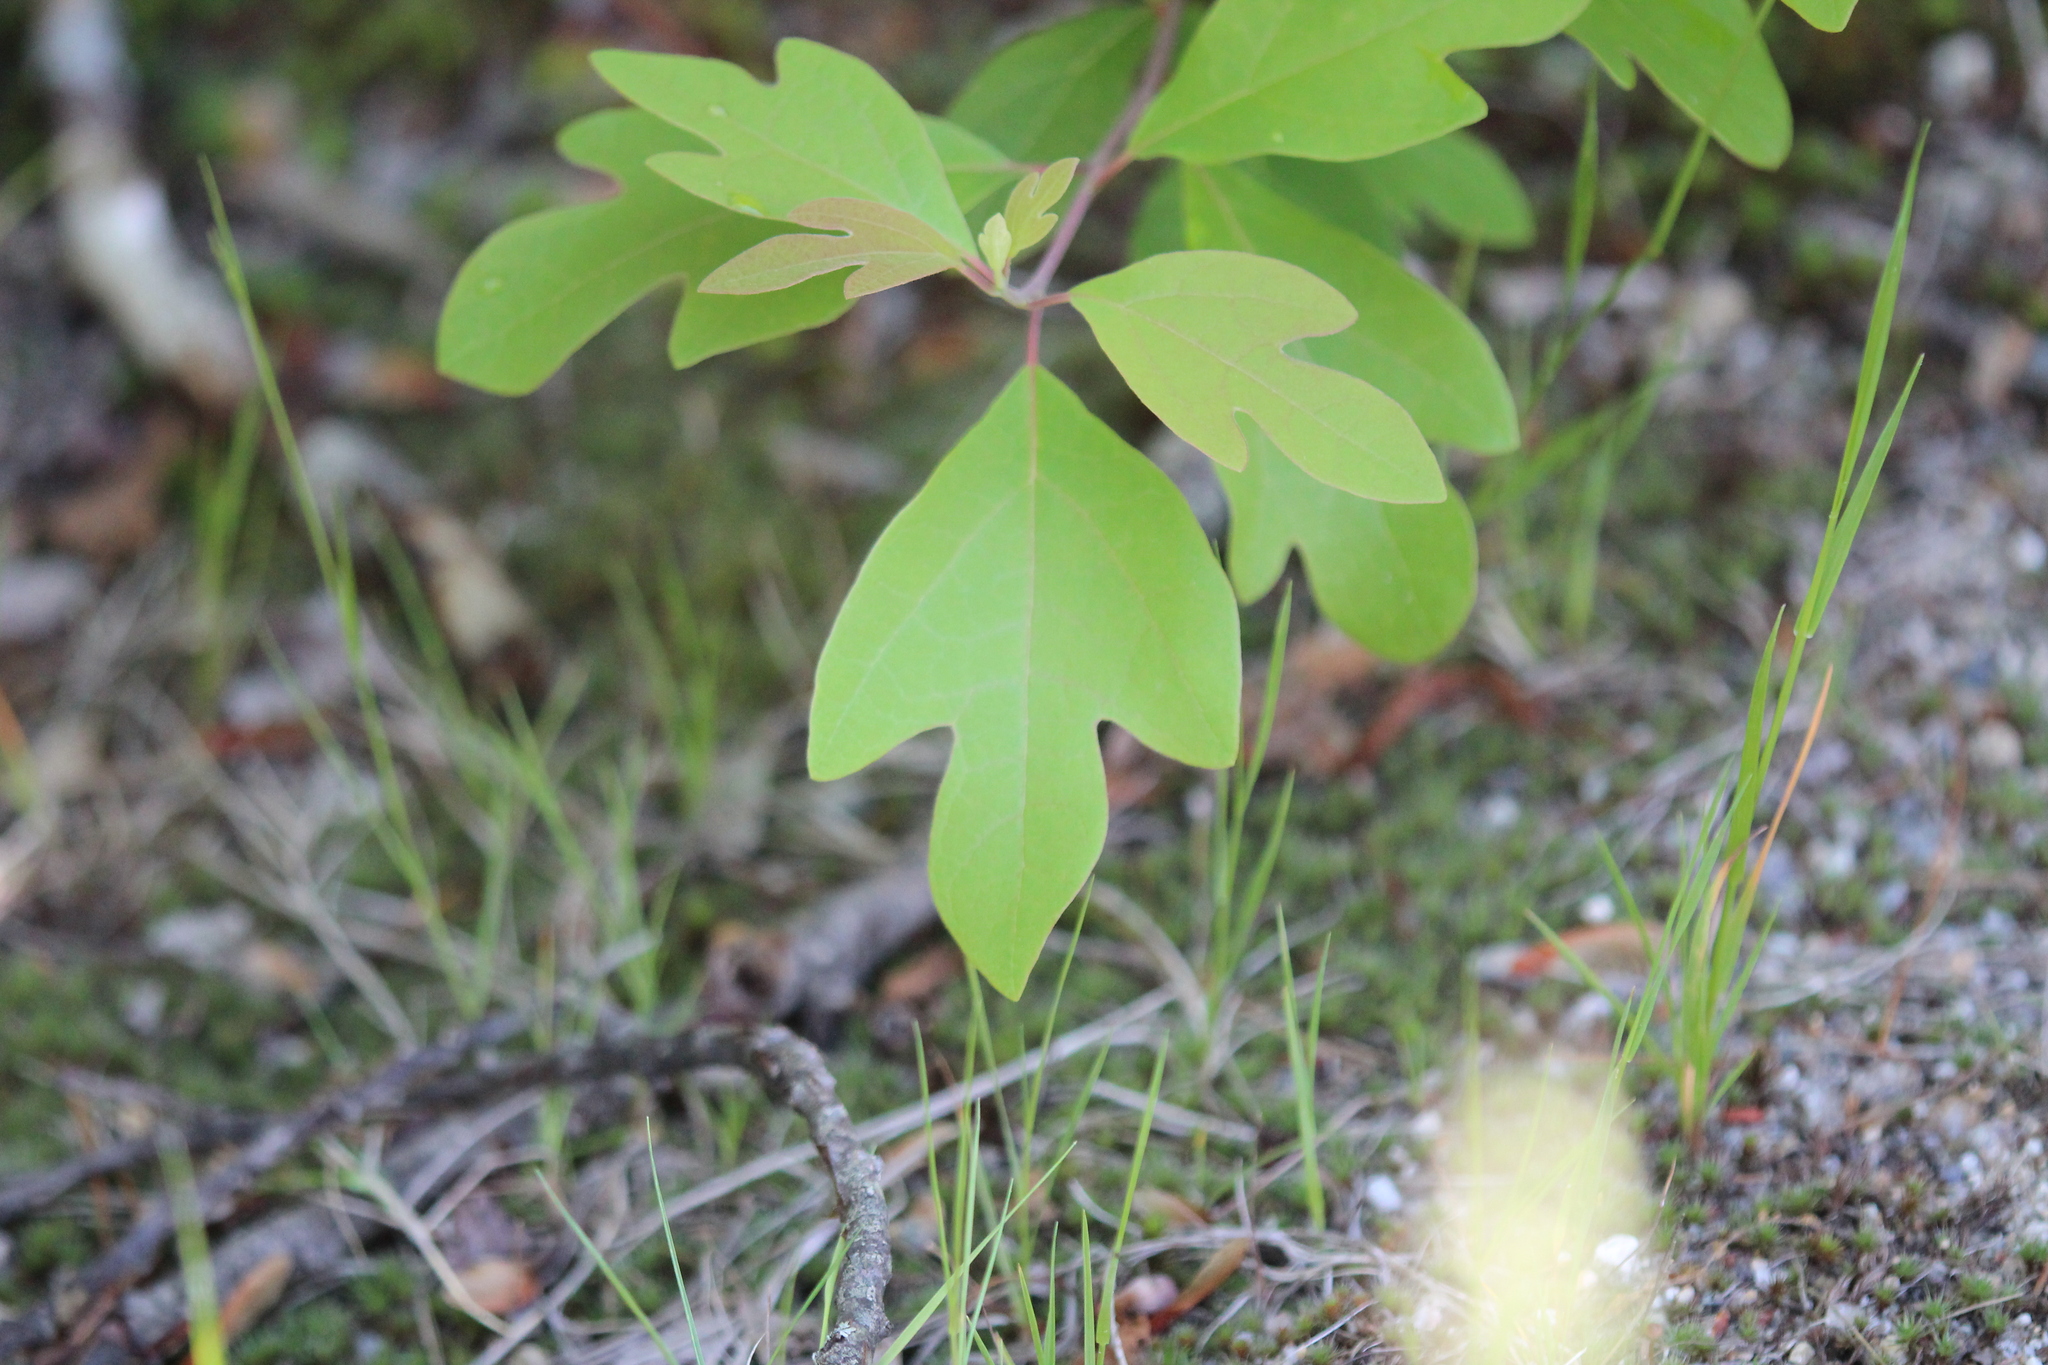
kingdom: Plantae
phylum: Tracheophyta
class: Magnoliopsida
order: Laurales
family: Lauraceae
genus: Sassafras
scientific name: Sassafras albidum
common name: Sassafras
